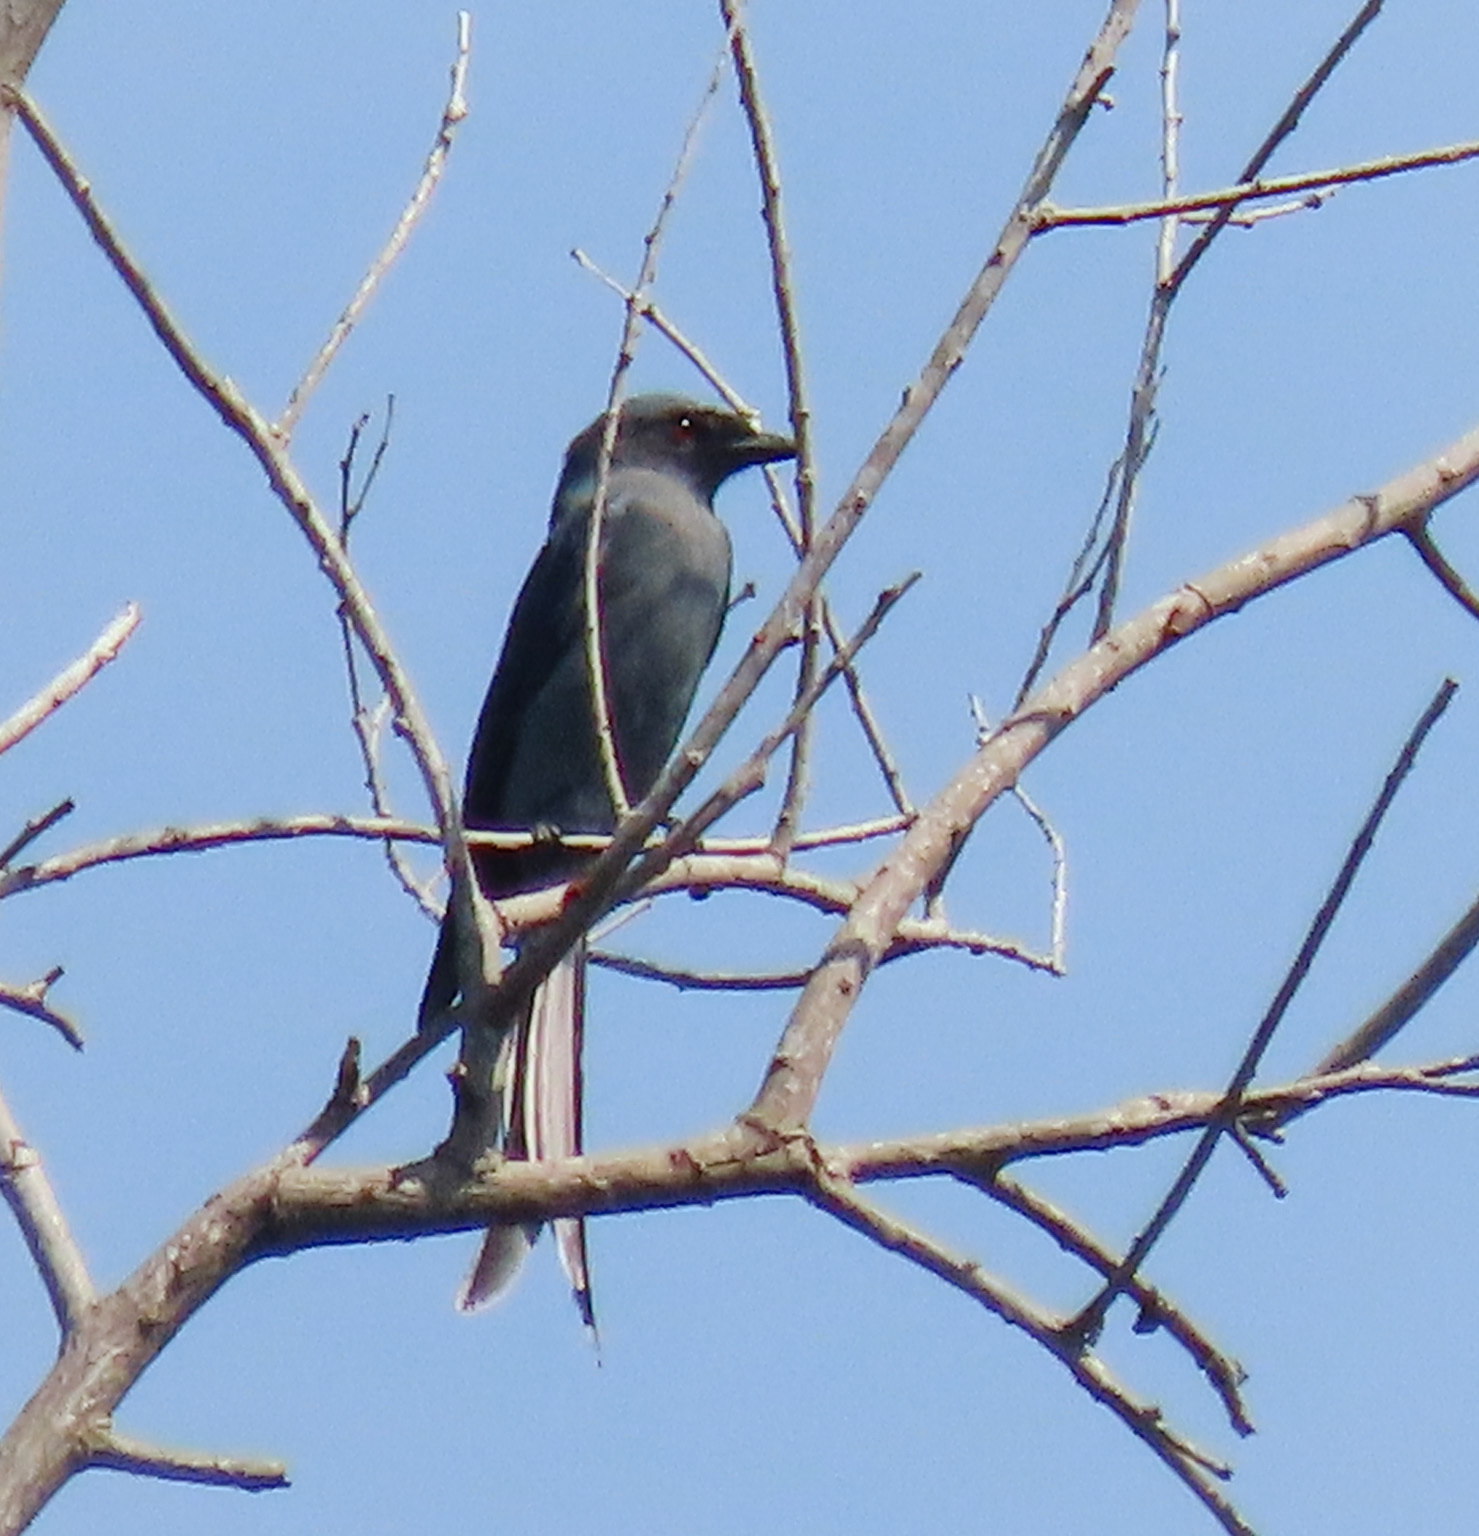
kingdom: Animalia
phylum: Chordata
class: Aves
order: Passeriformes
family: Dicruridae
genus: Dicrurus
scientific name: Dicrurus leucophaeus
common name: Ashy drongo
